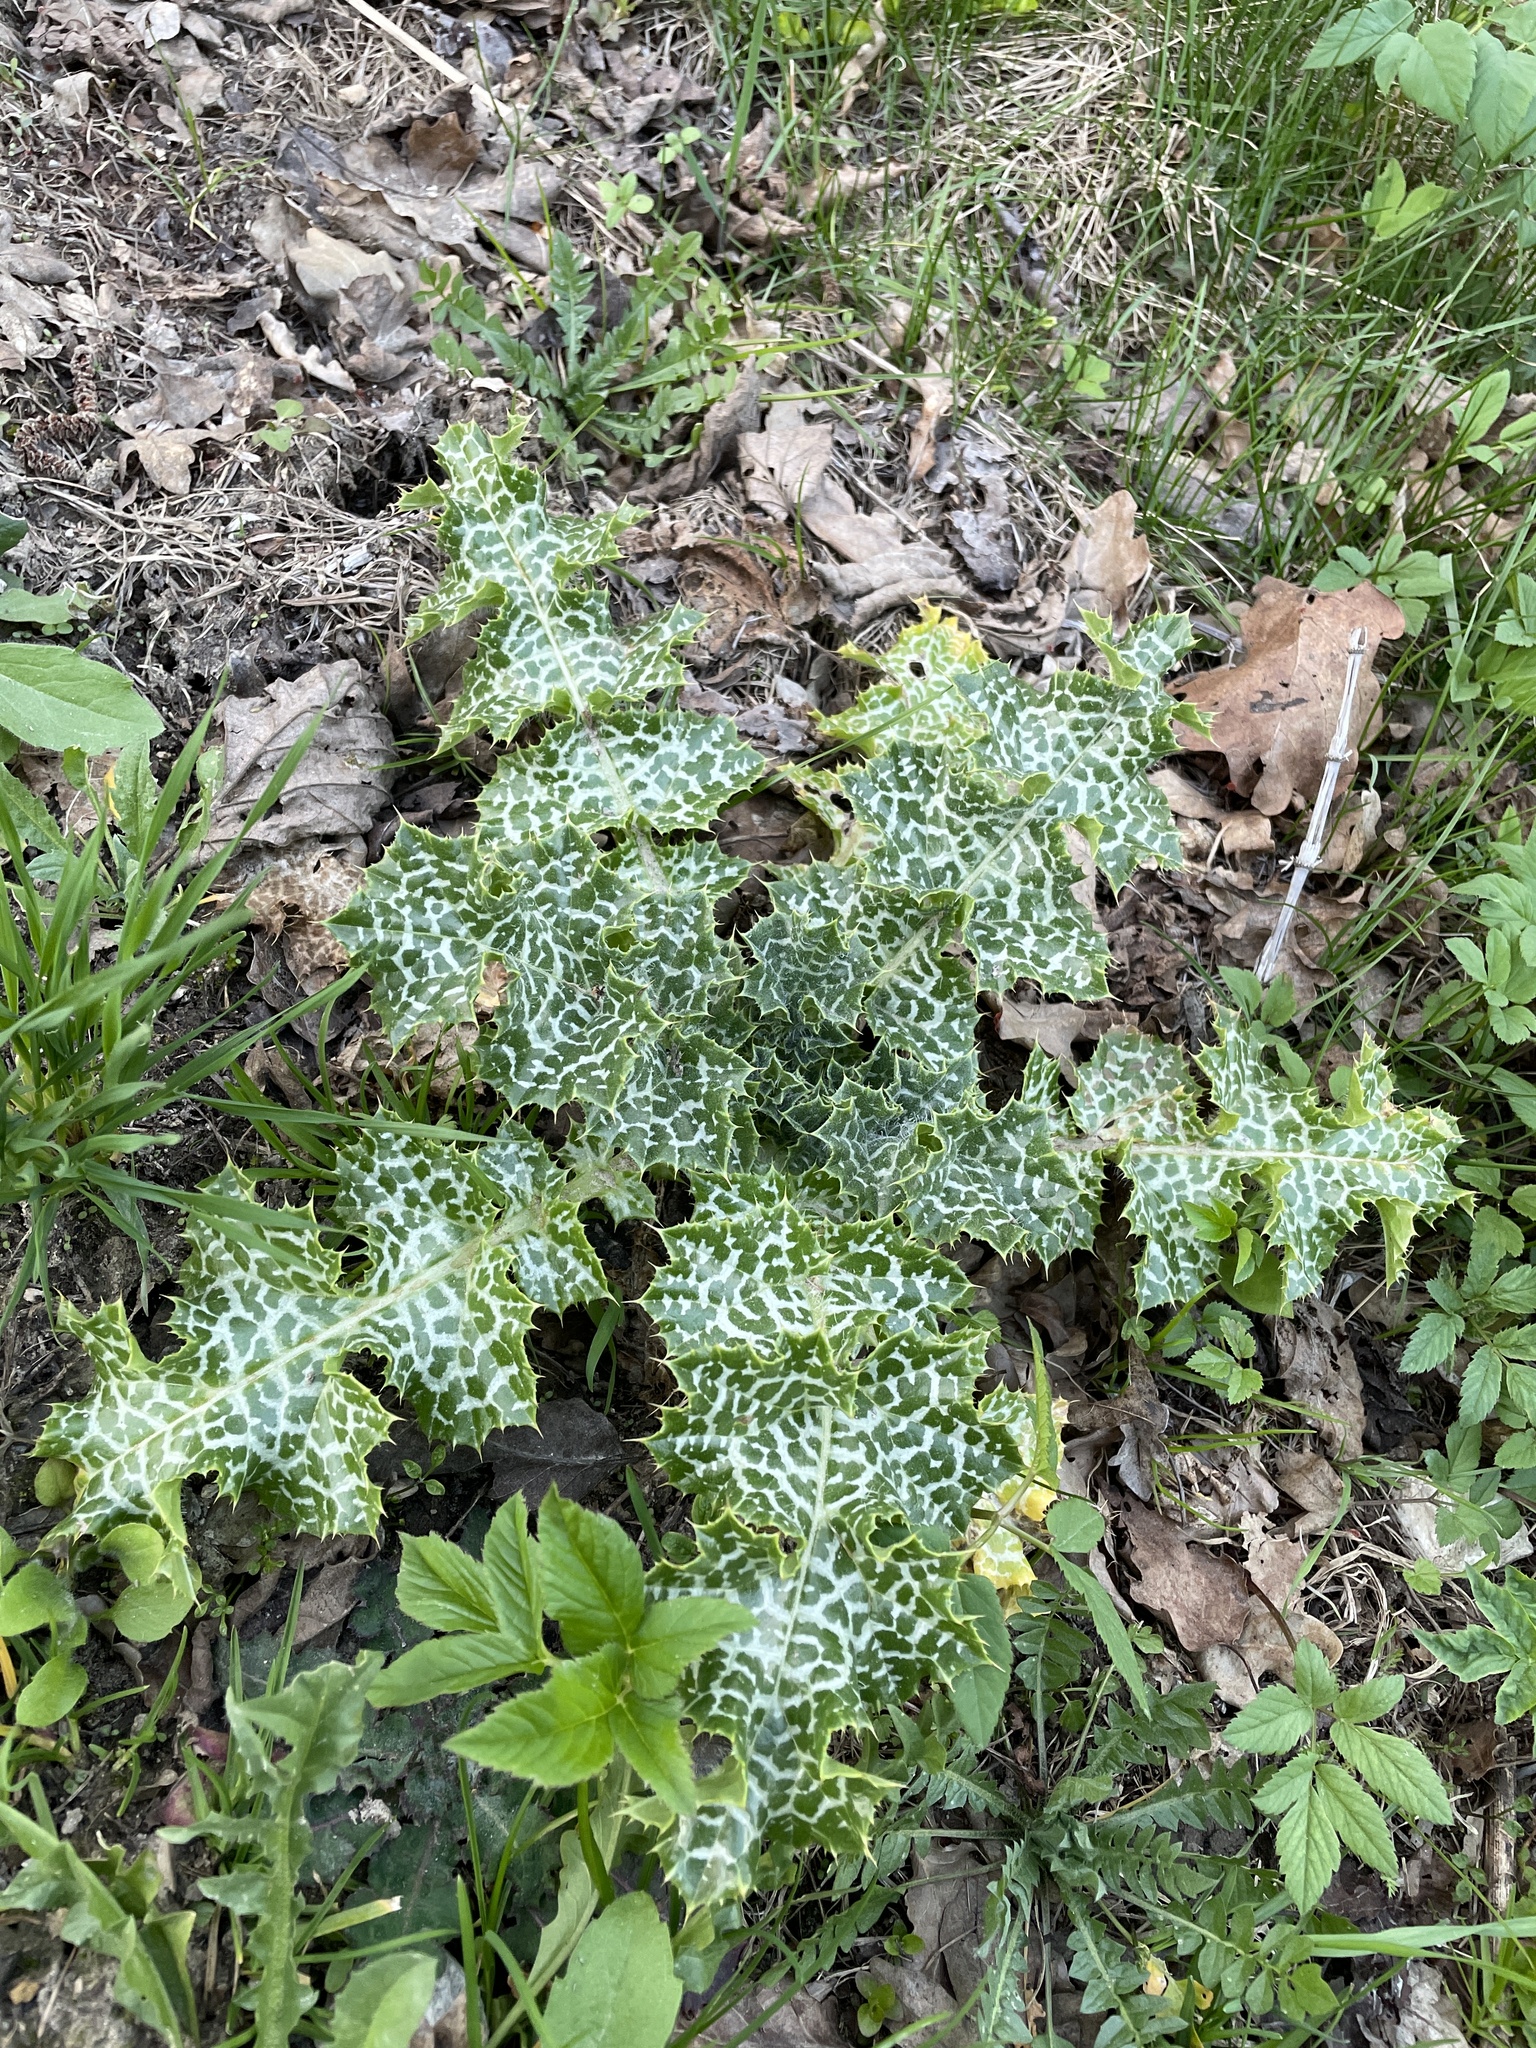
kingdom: Plantae
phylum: Tracheophyta
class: Magnoliopsida
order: Asterales
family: Asteraceae
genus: Silybum
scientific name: Silybum marianum
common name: Milk thistle
